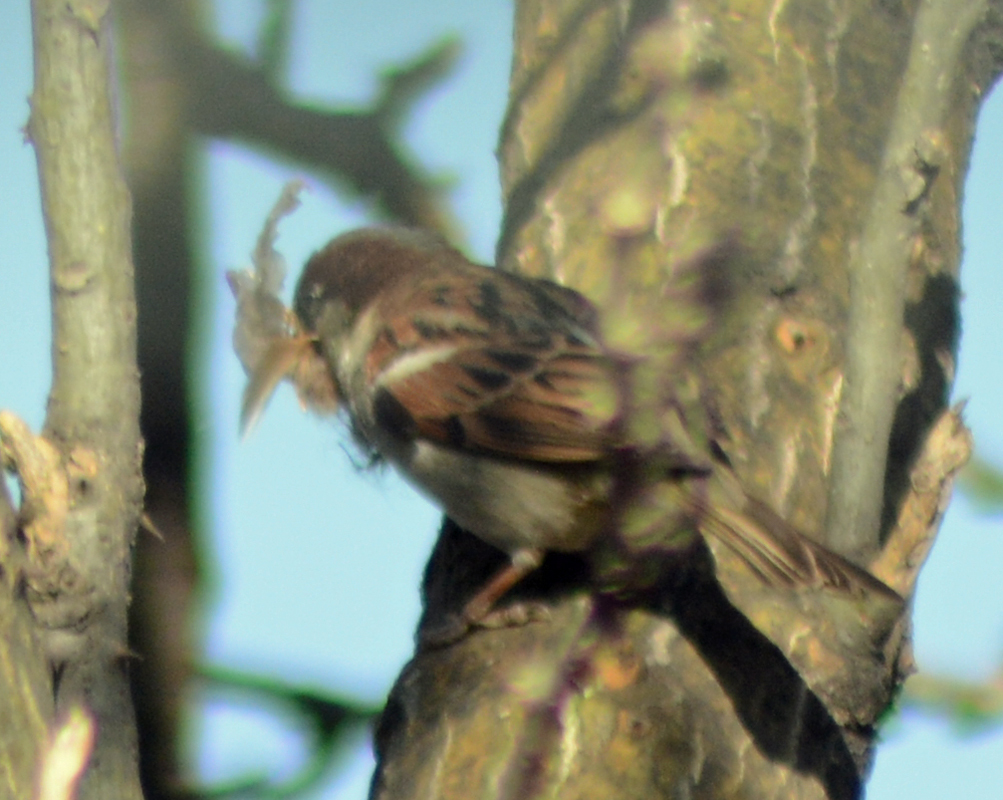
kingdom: Animalia
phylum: Chordata
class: Aves
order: Passeriformes
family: Passeridae
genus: Passer
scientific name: Passer domesticus
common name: House sparrow
